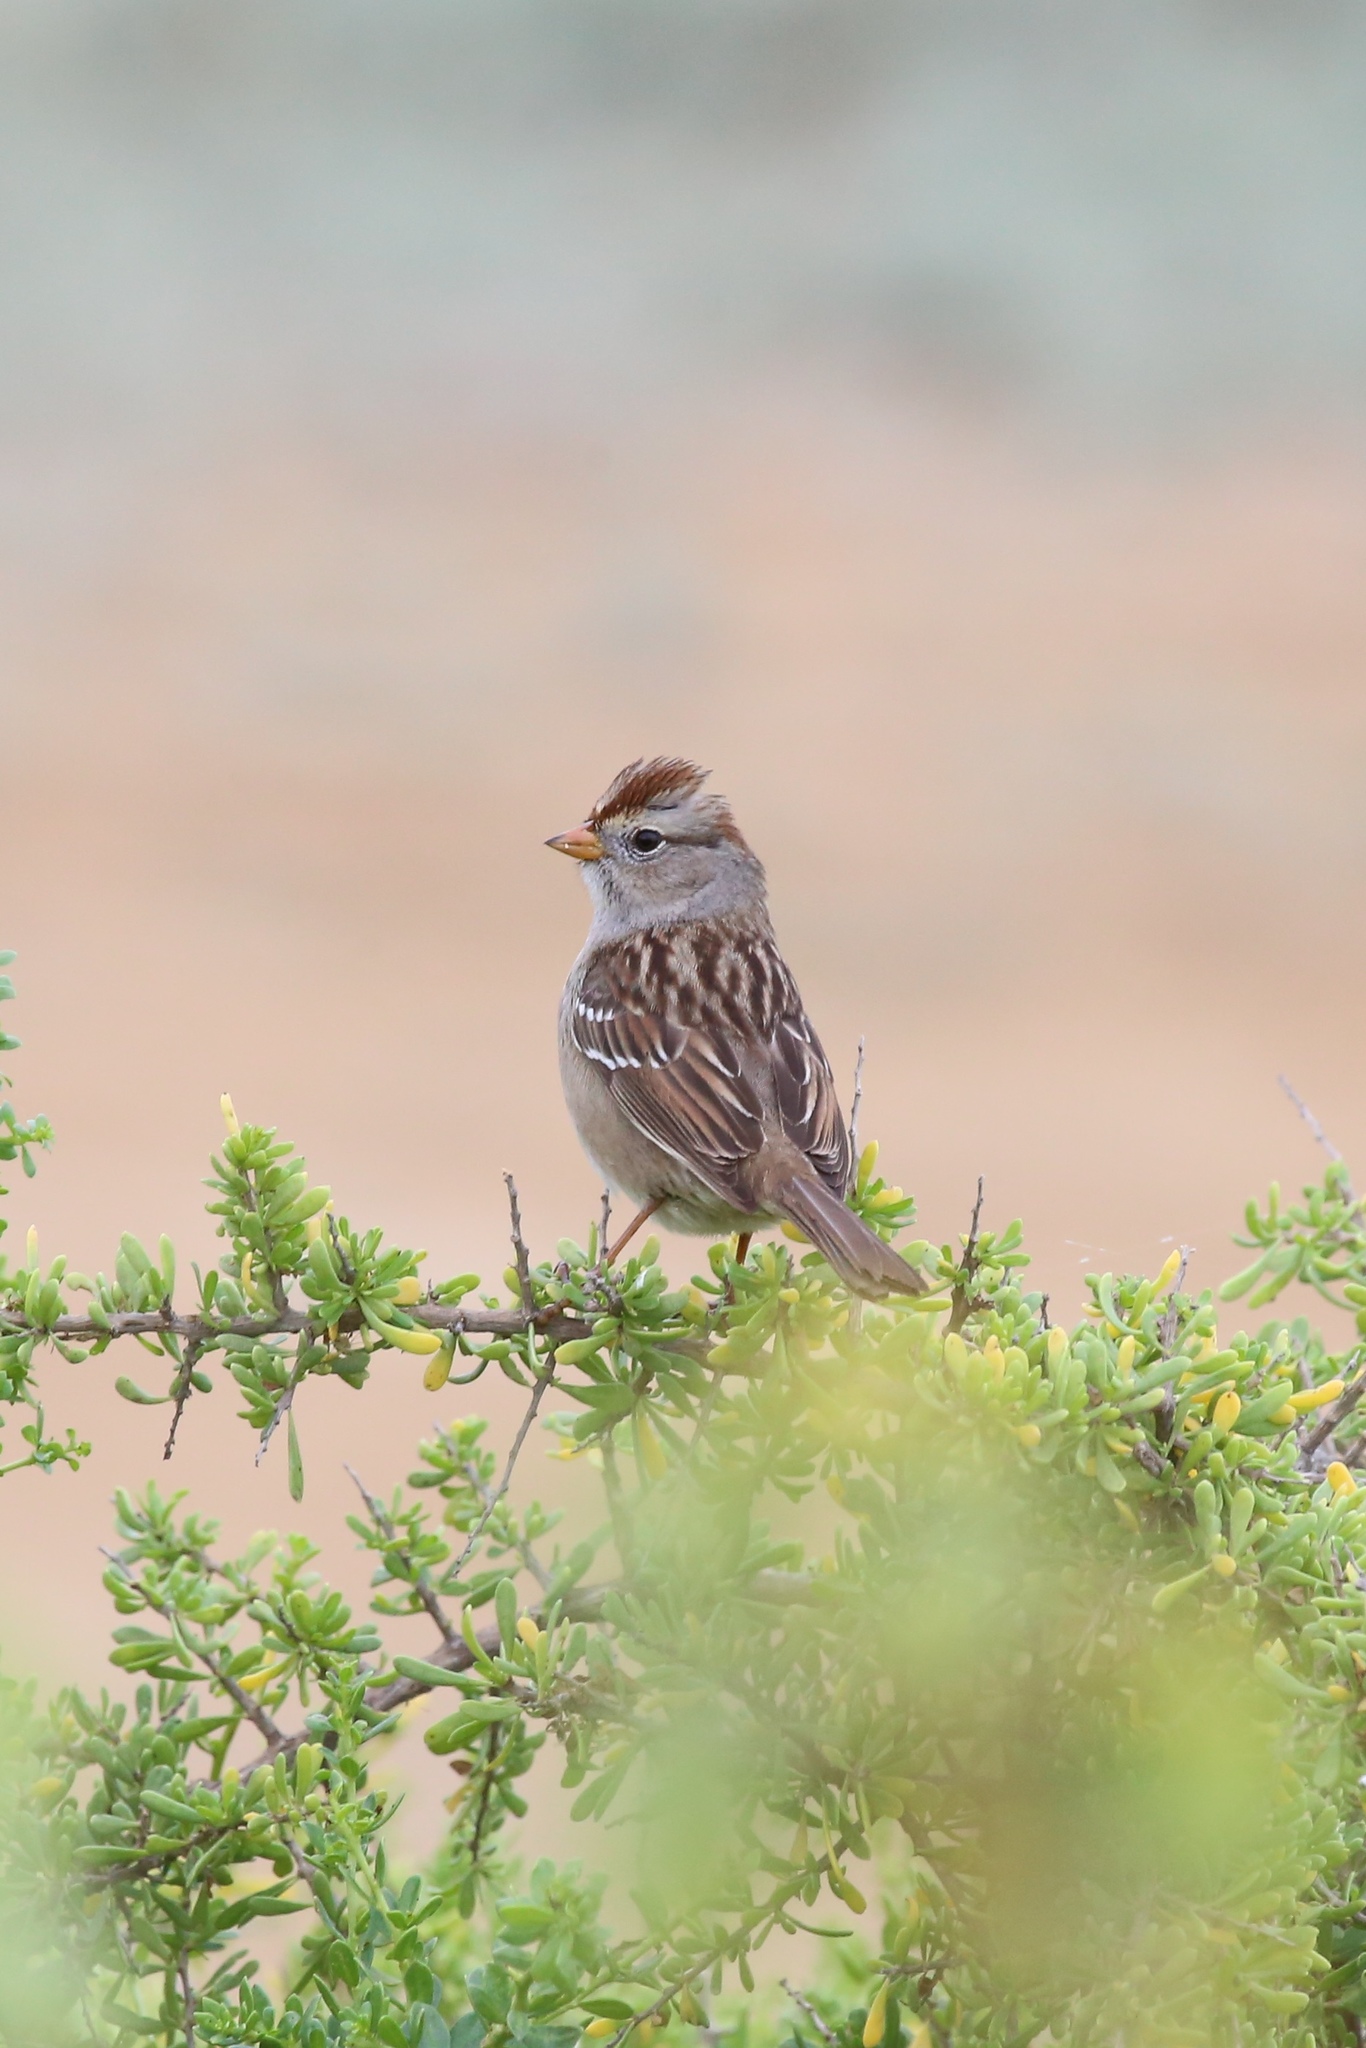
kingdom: Animalia
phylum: Chordata
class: Aves
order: Passeriformes
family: Passerellidae
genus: Zonotrichia
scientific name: Zonotrichia leucophrys
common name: White-crowned sparrow
